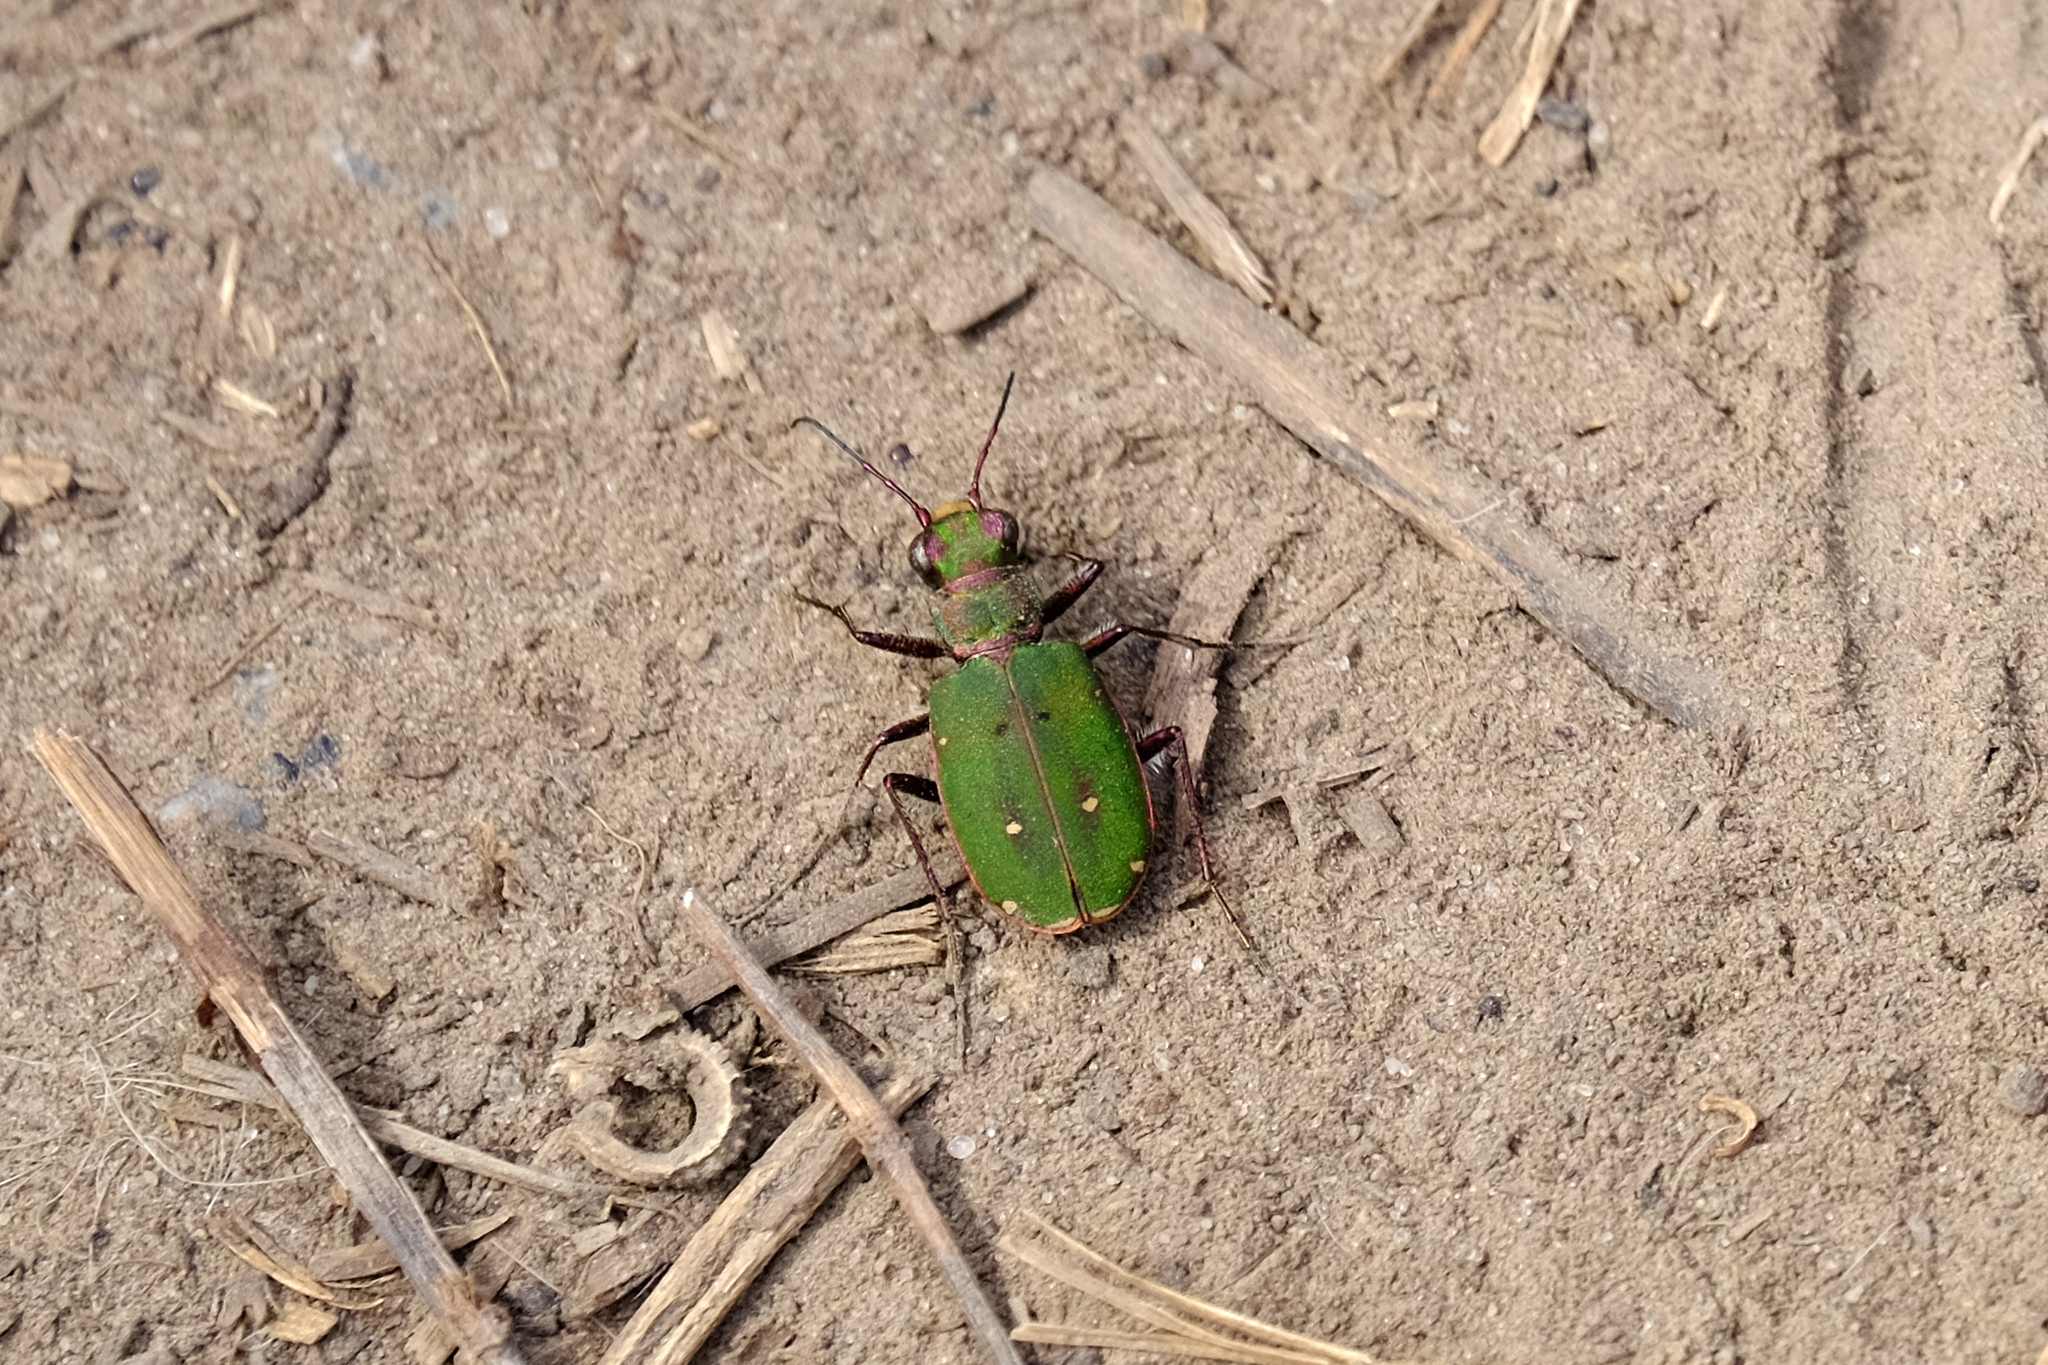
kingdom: Animalia
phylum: Arthropoda
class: Insecta
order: Coleoptera
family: Carabidae
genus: Cicindela
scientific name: Cicindela campestris
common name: Common tiger beetle
